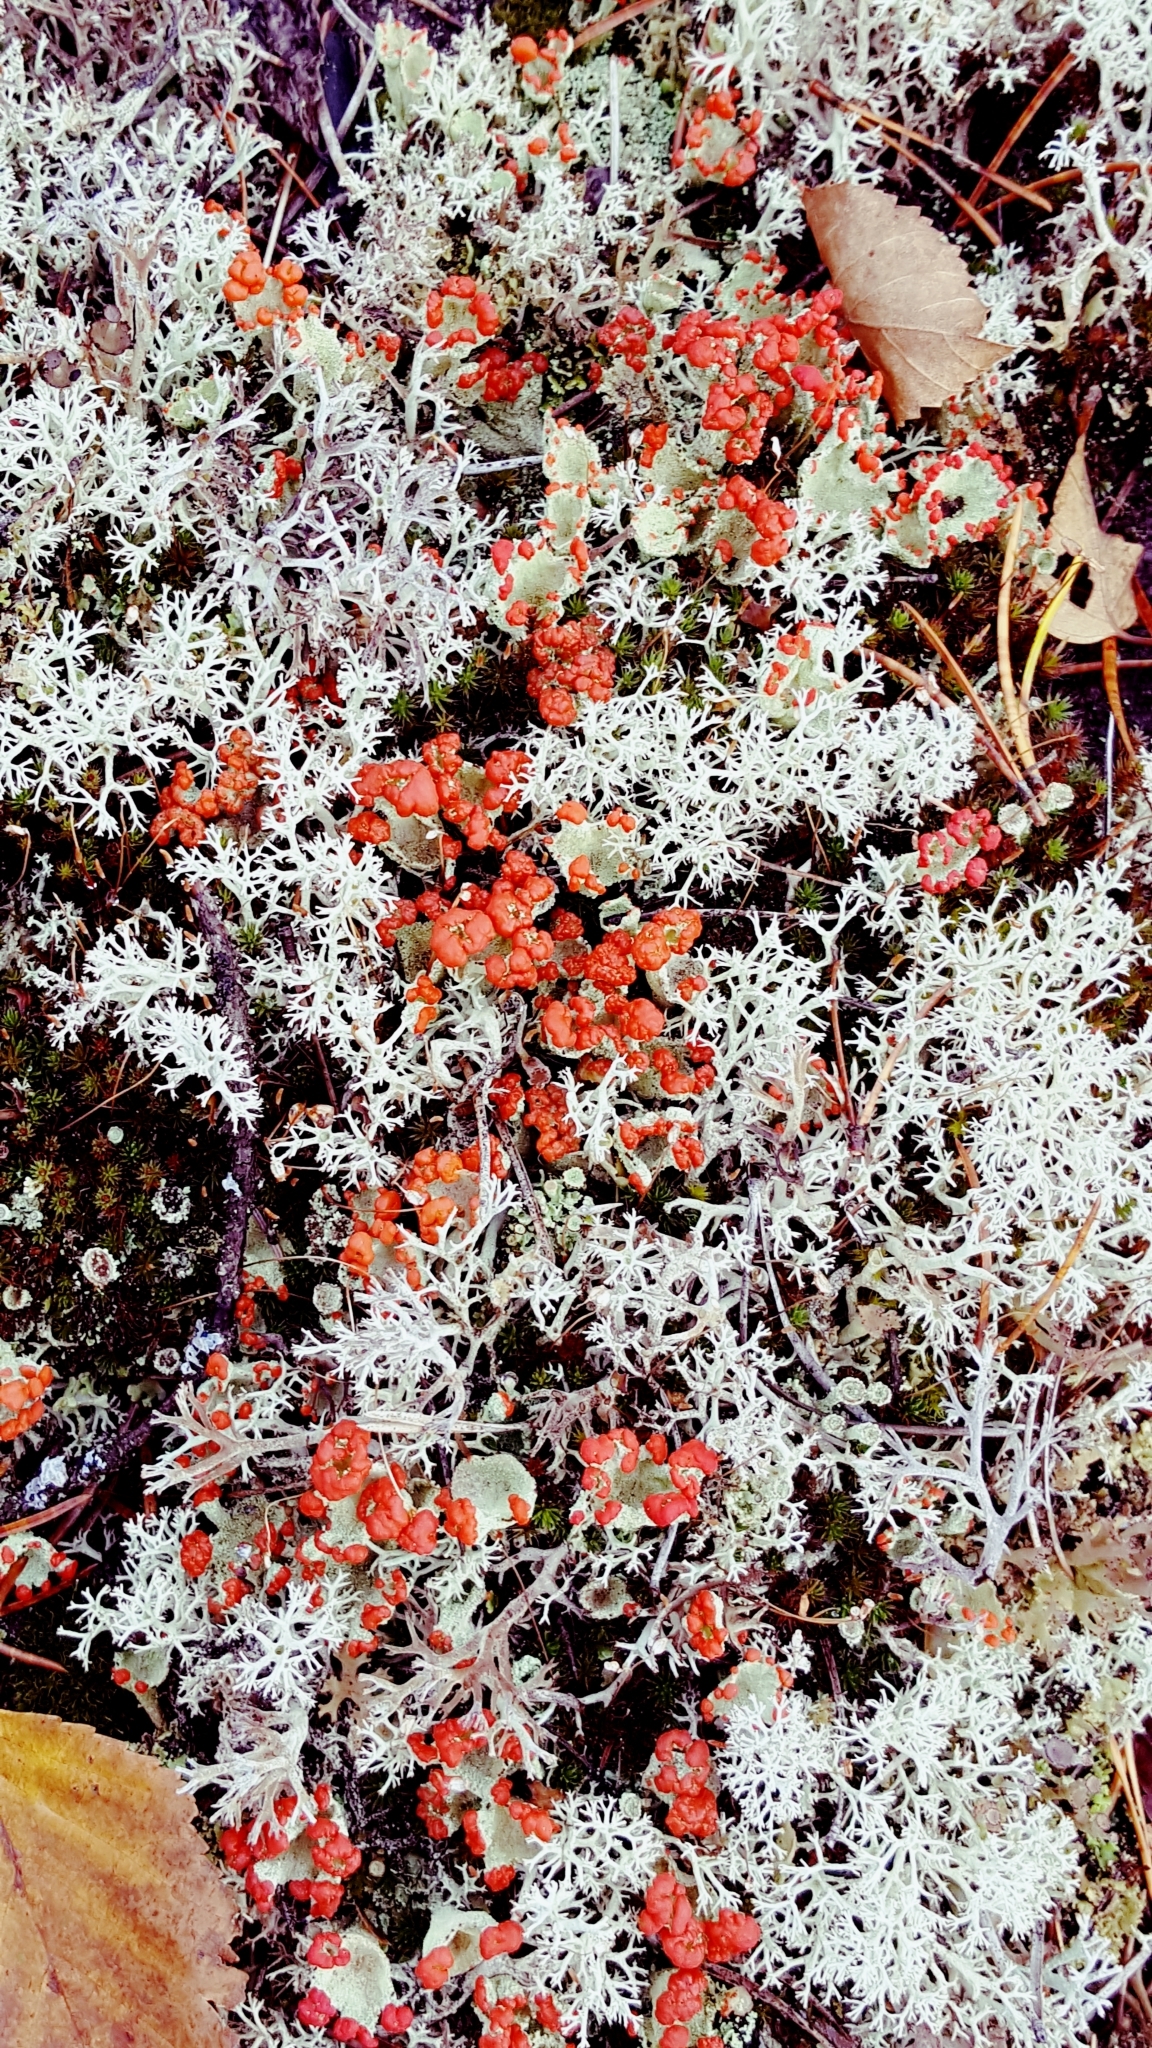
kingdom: Fungi
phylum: Ascomycota
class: Lecanoromycetes
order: Lecanorales
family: Cladoniaceae
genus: Cladonia
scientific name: Cladonia pleurota
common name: Red-fruited pixie cup
